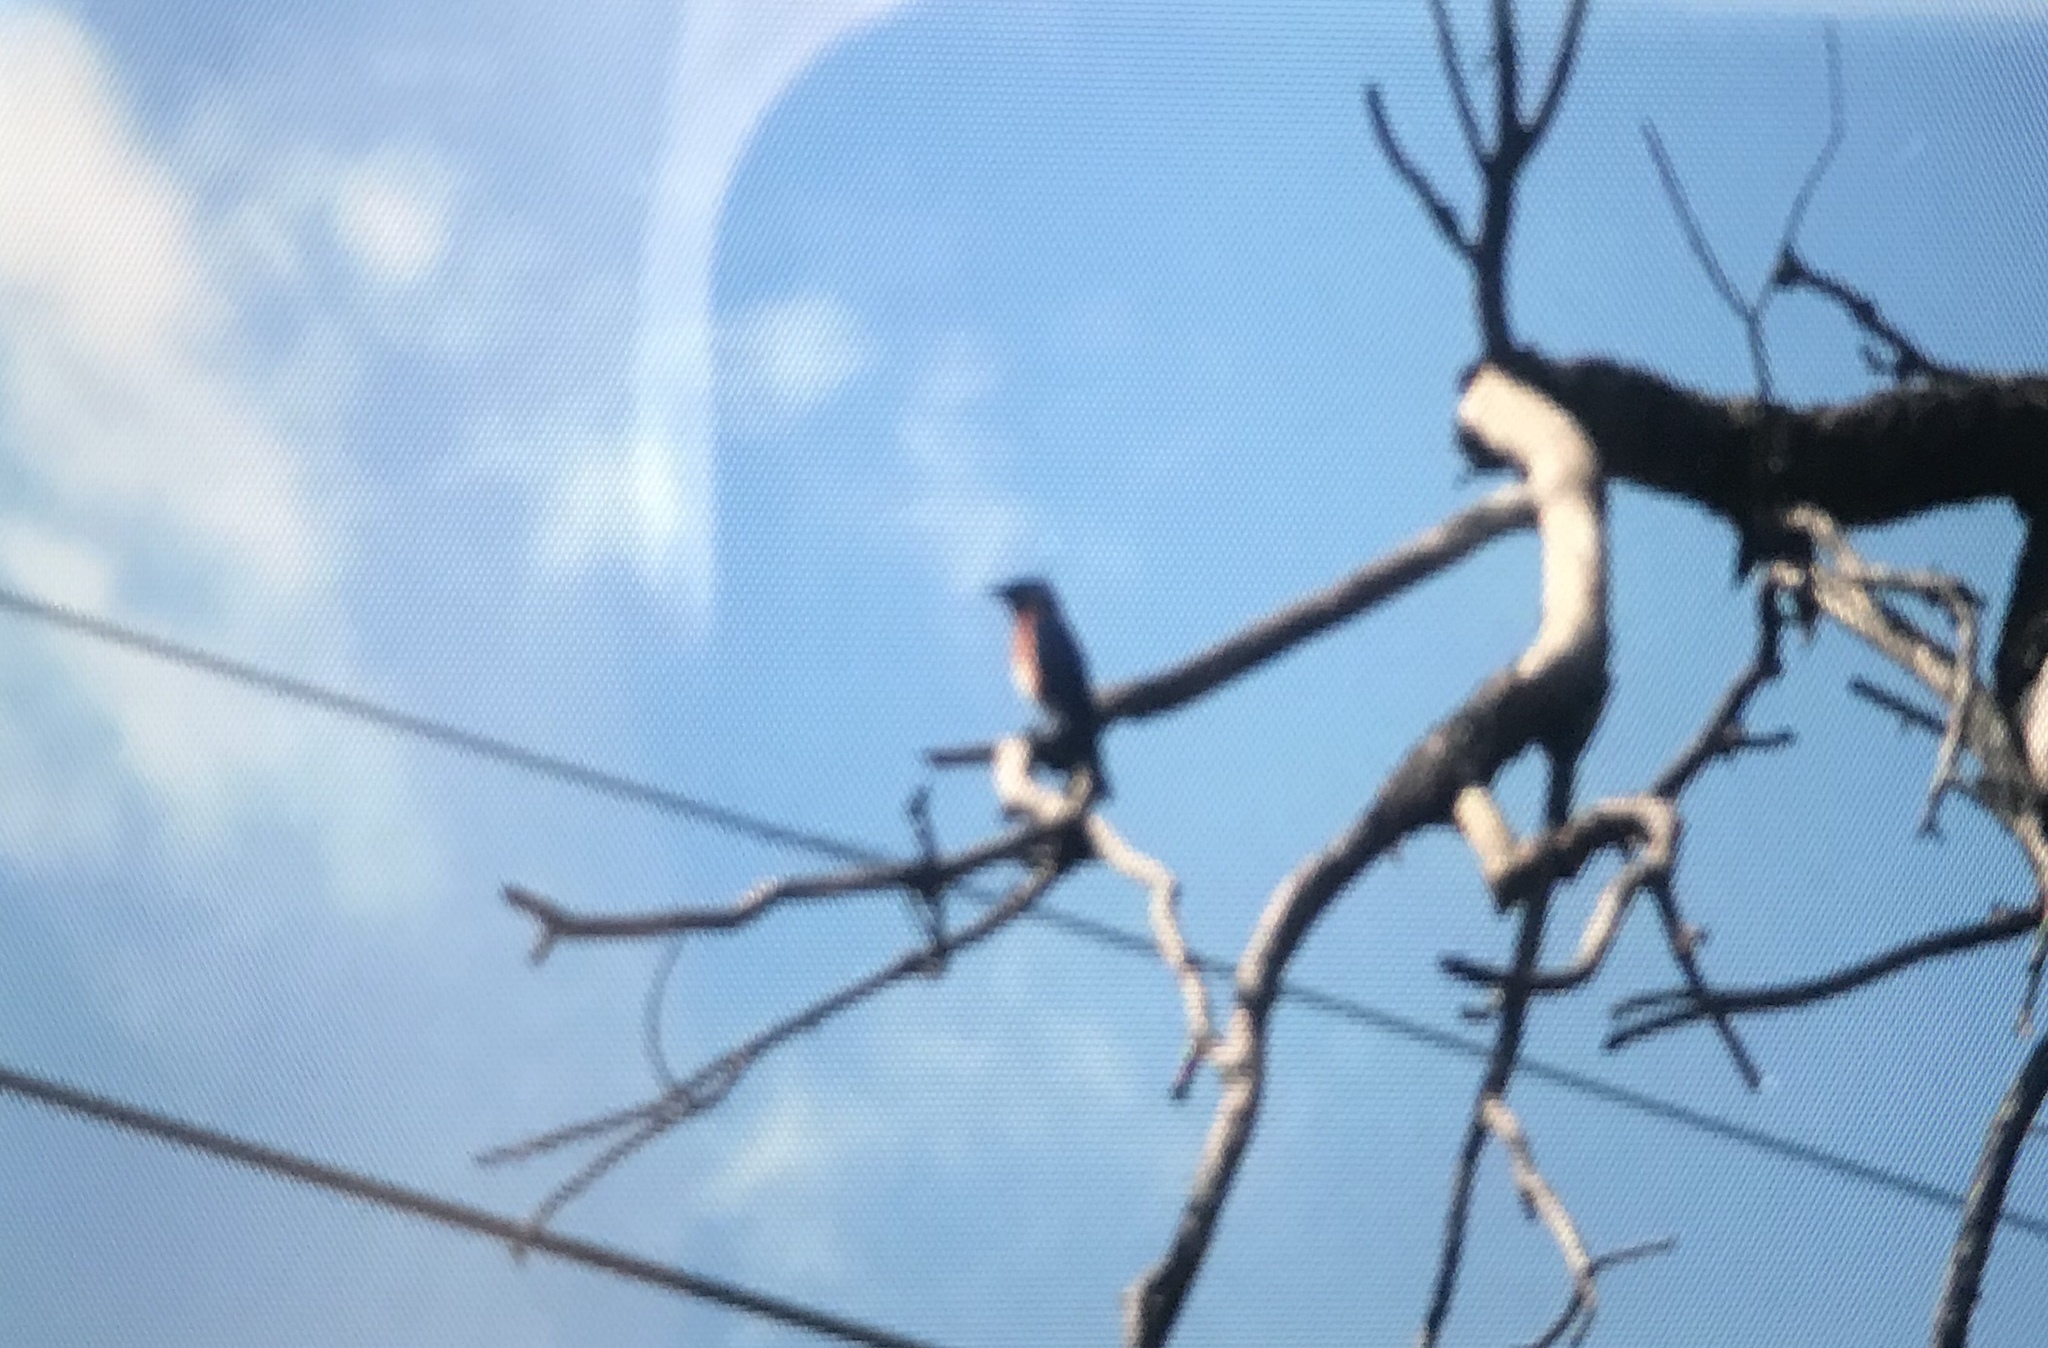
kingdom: Animalia
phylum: Chordata
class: Aves
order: Passeriformes
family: Turdidae
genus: Sialia
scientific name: Sialia sialis
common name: Eastern bluebird
